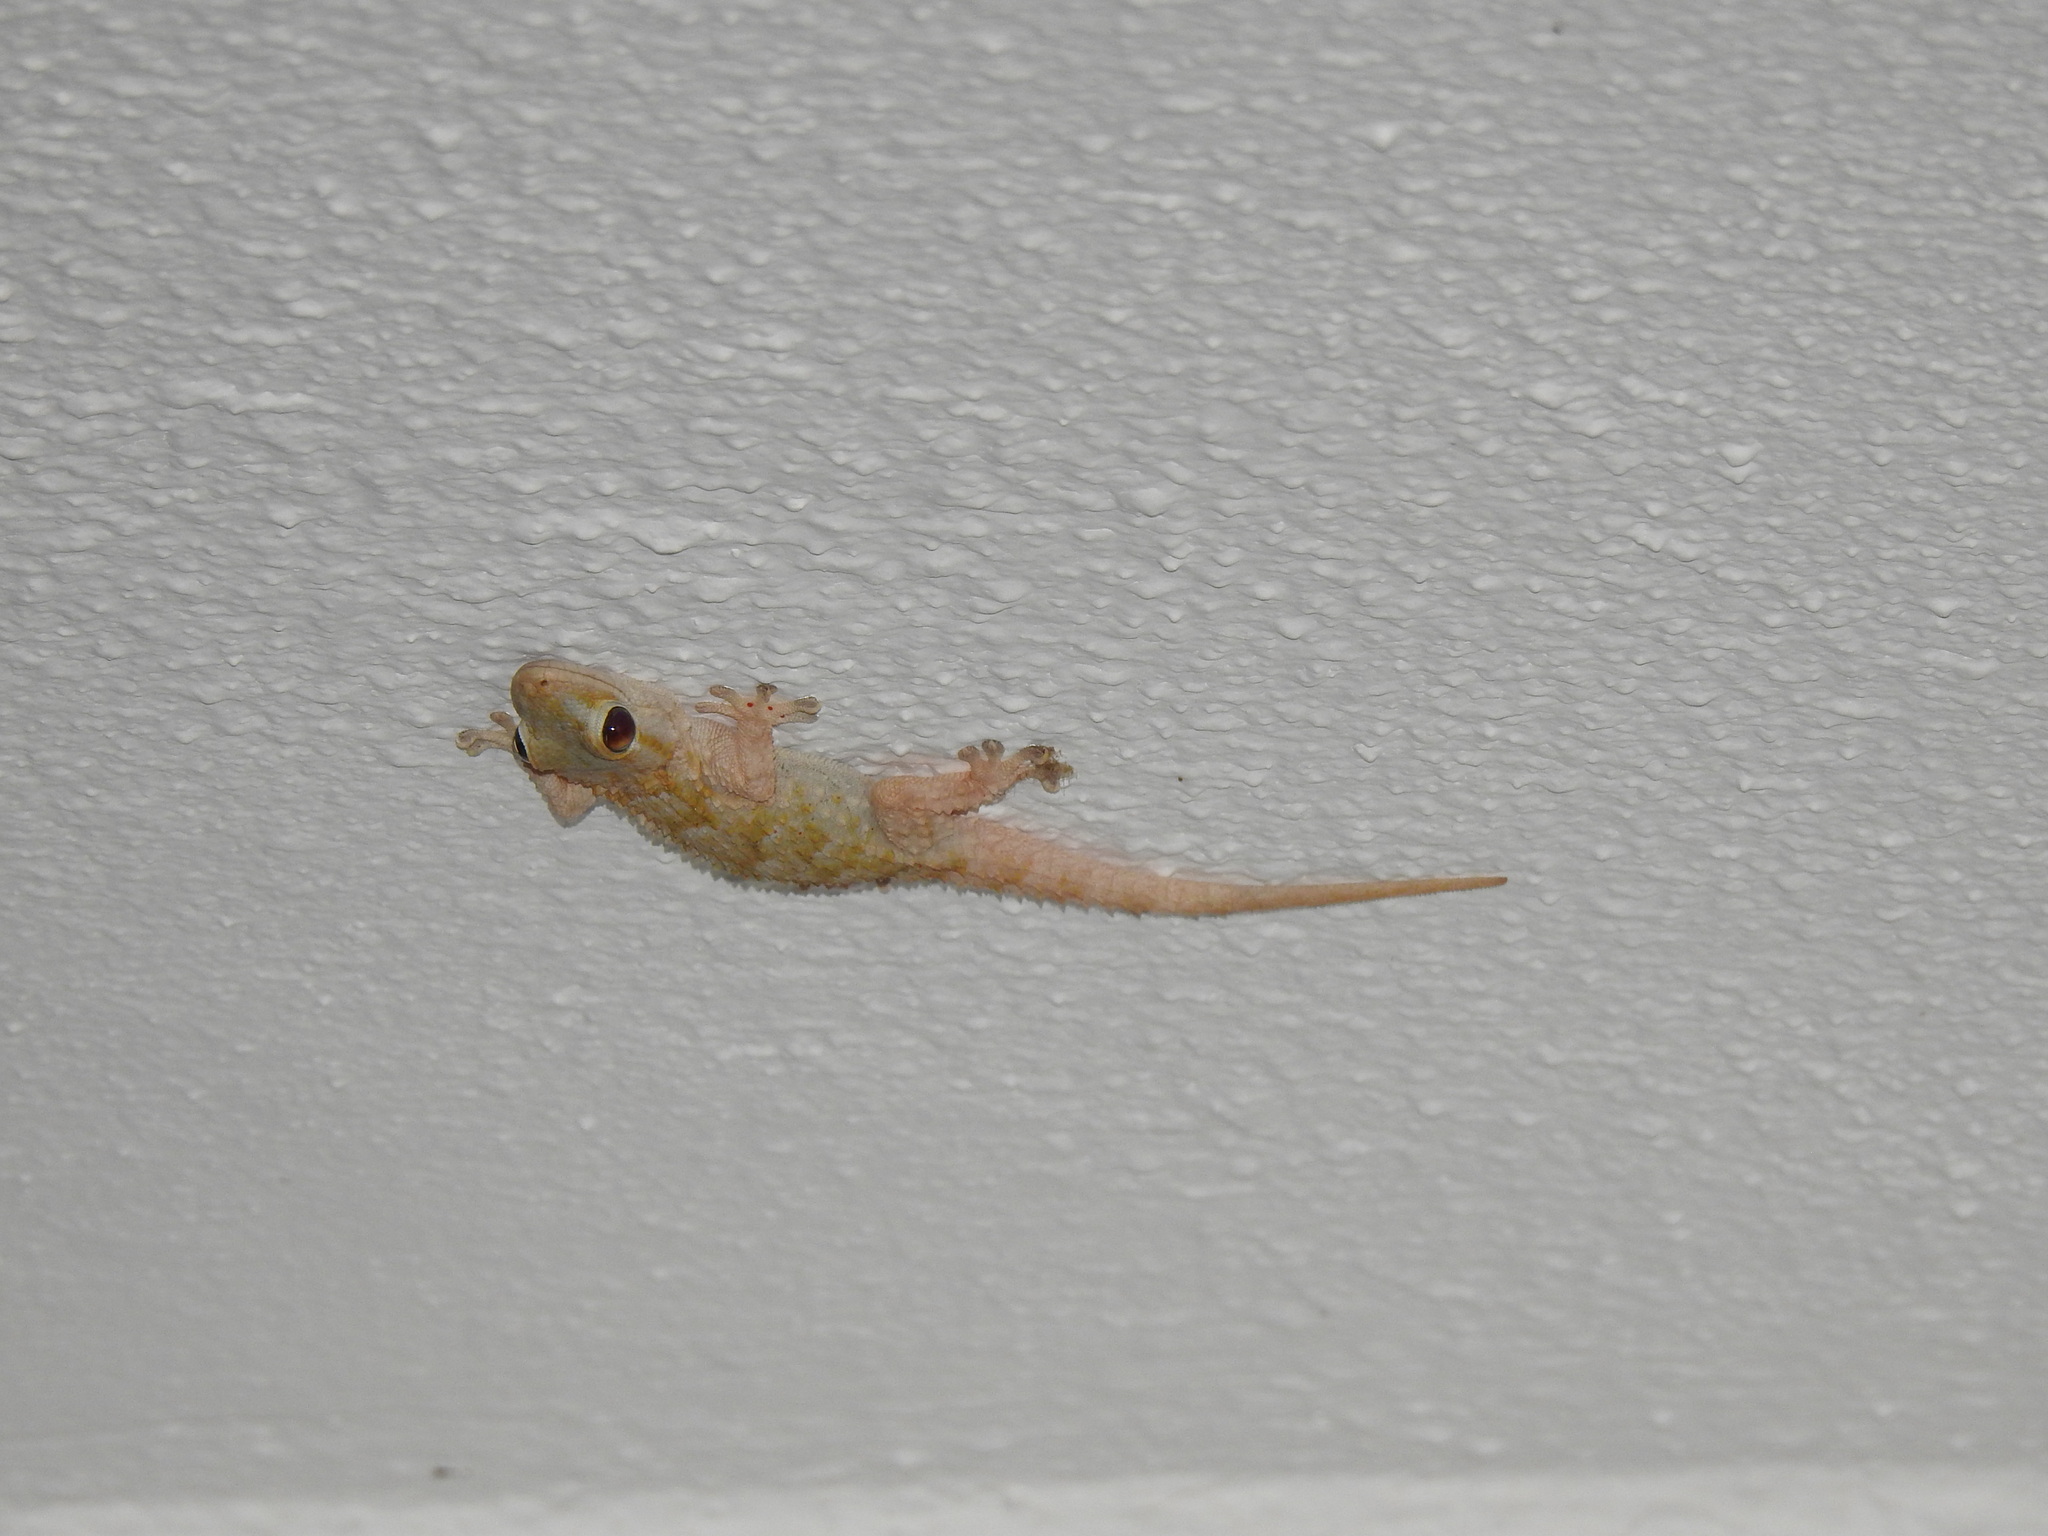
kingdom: Animalia
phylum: Chordata
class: Squamata
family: Phyllodactylidae
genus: Tarentola
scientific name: Tarentola mauritanica
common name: Moorish gecko
